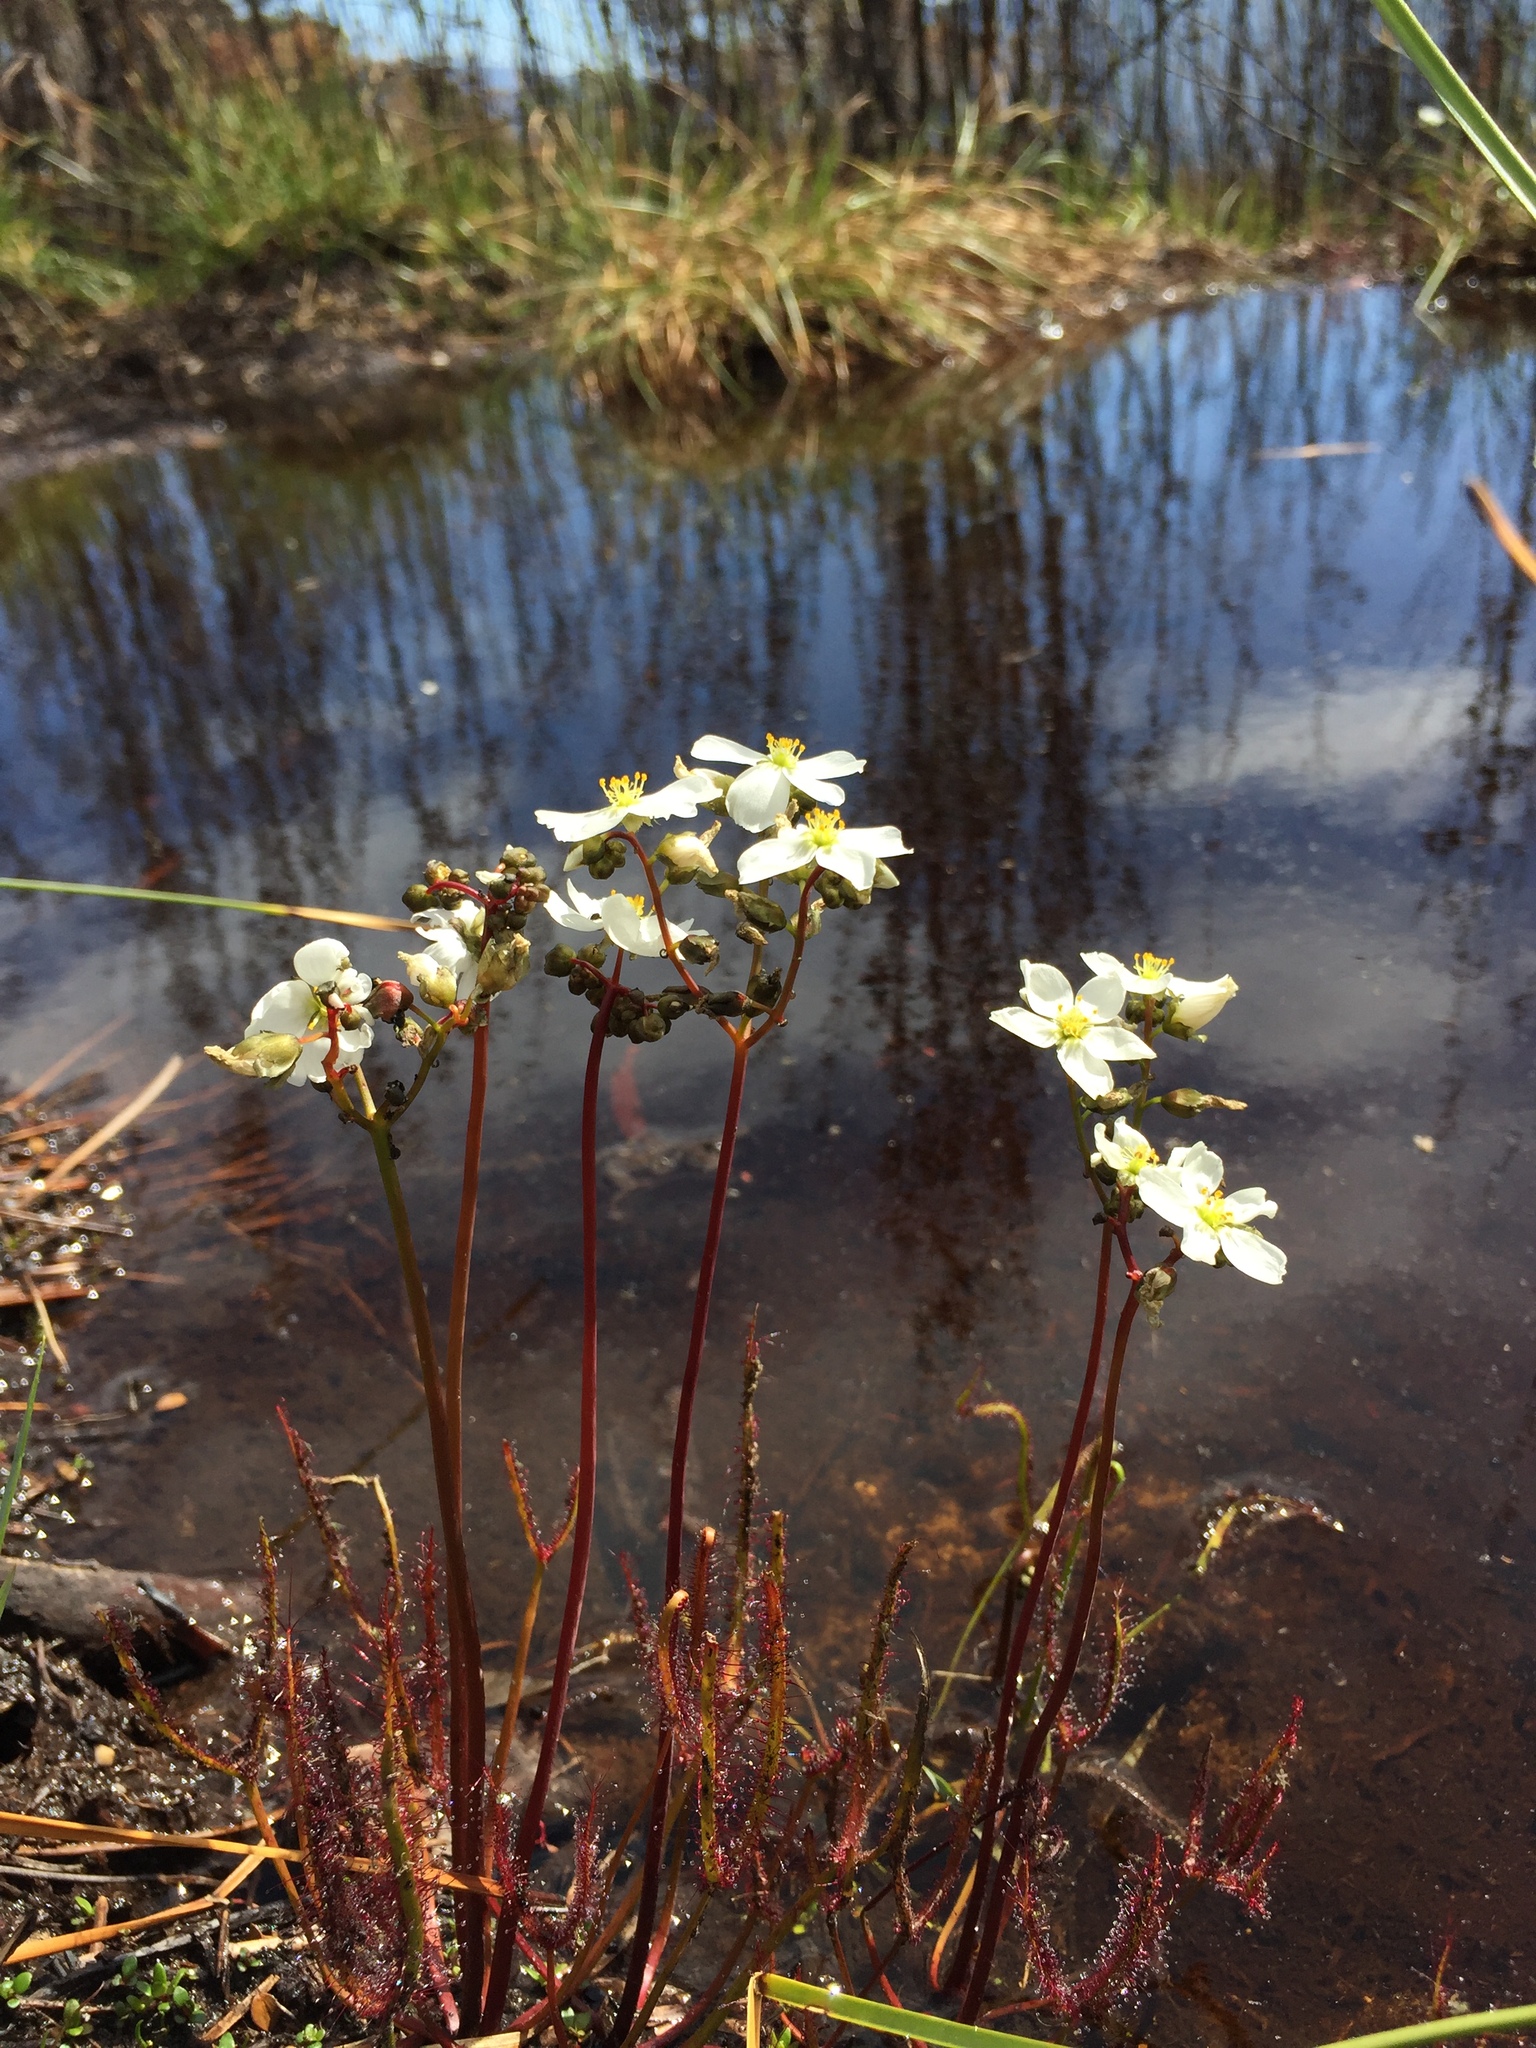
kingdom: Plantae
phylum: Tracheophyta
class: Magnoliopsida
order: Caryophyllales
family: Droseraceae
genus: Drosera
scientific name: Drosera binata
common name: Forked sundew
